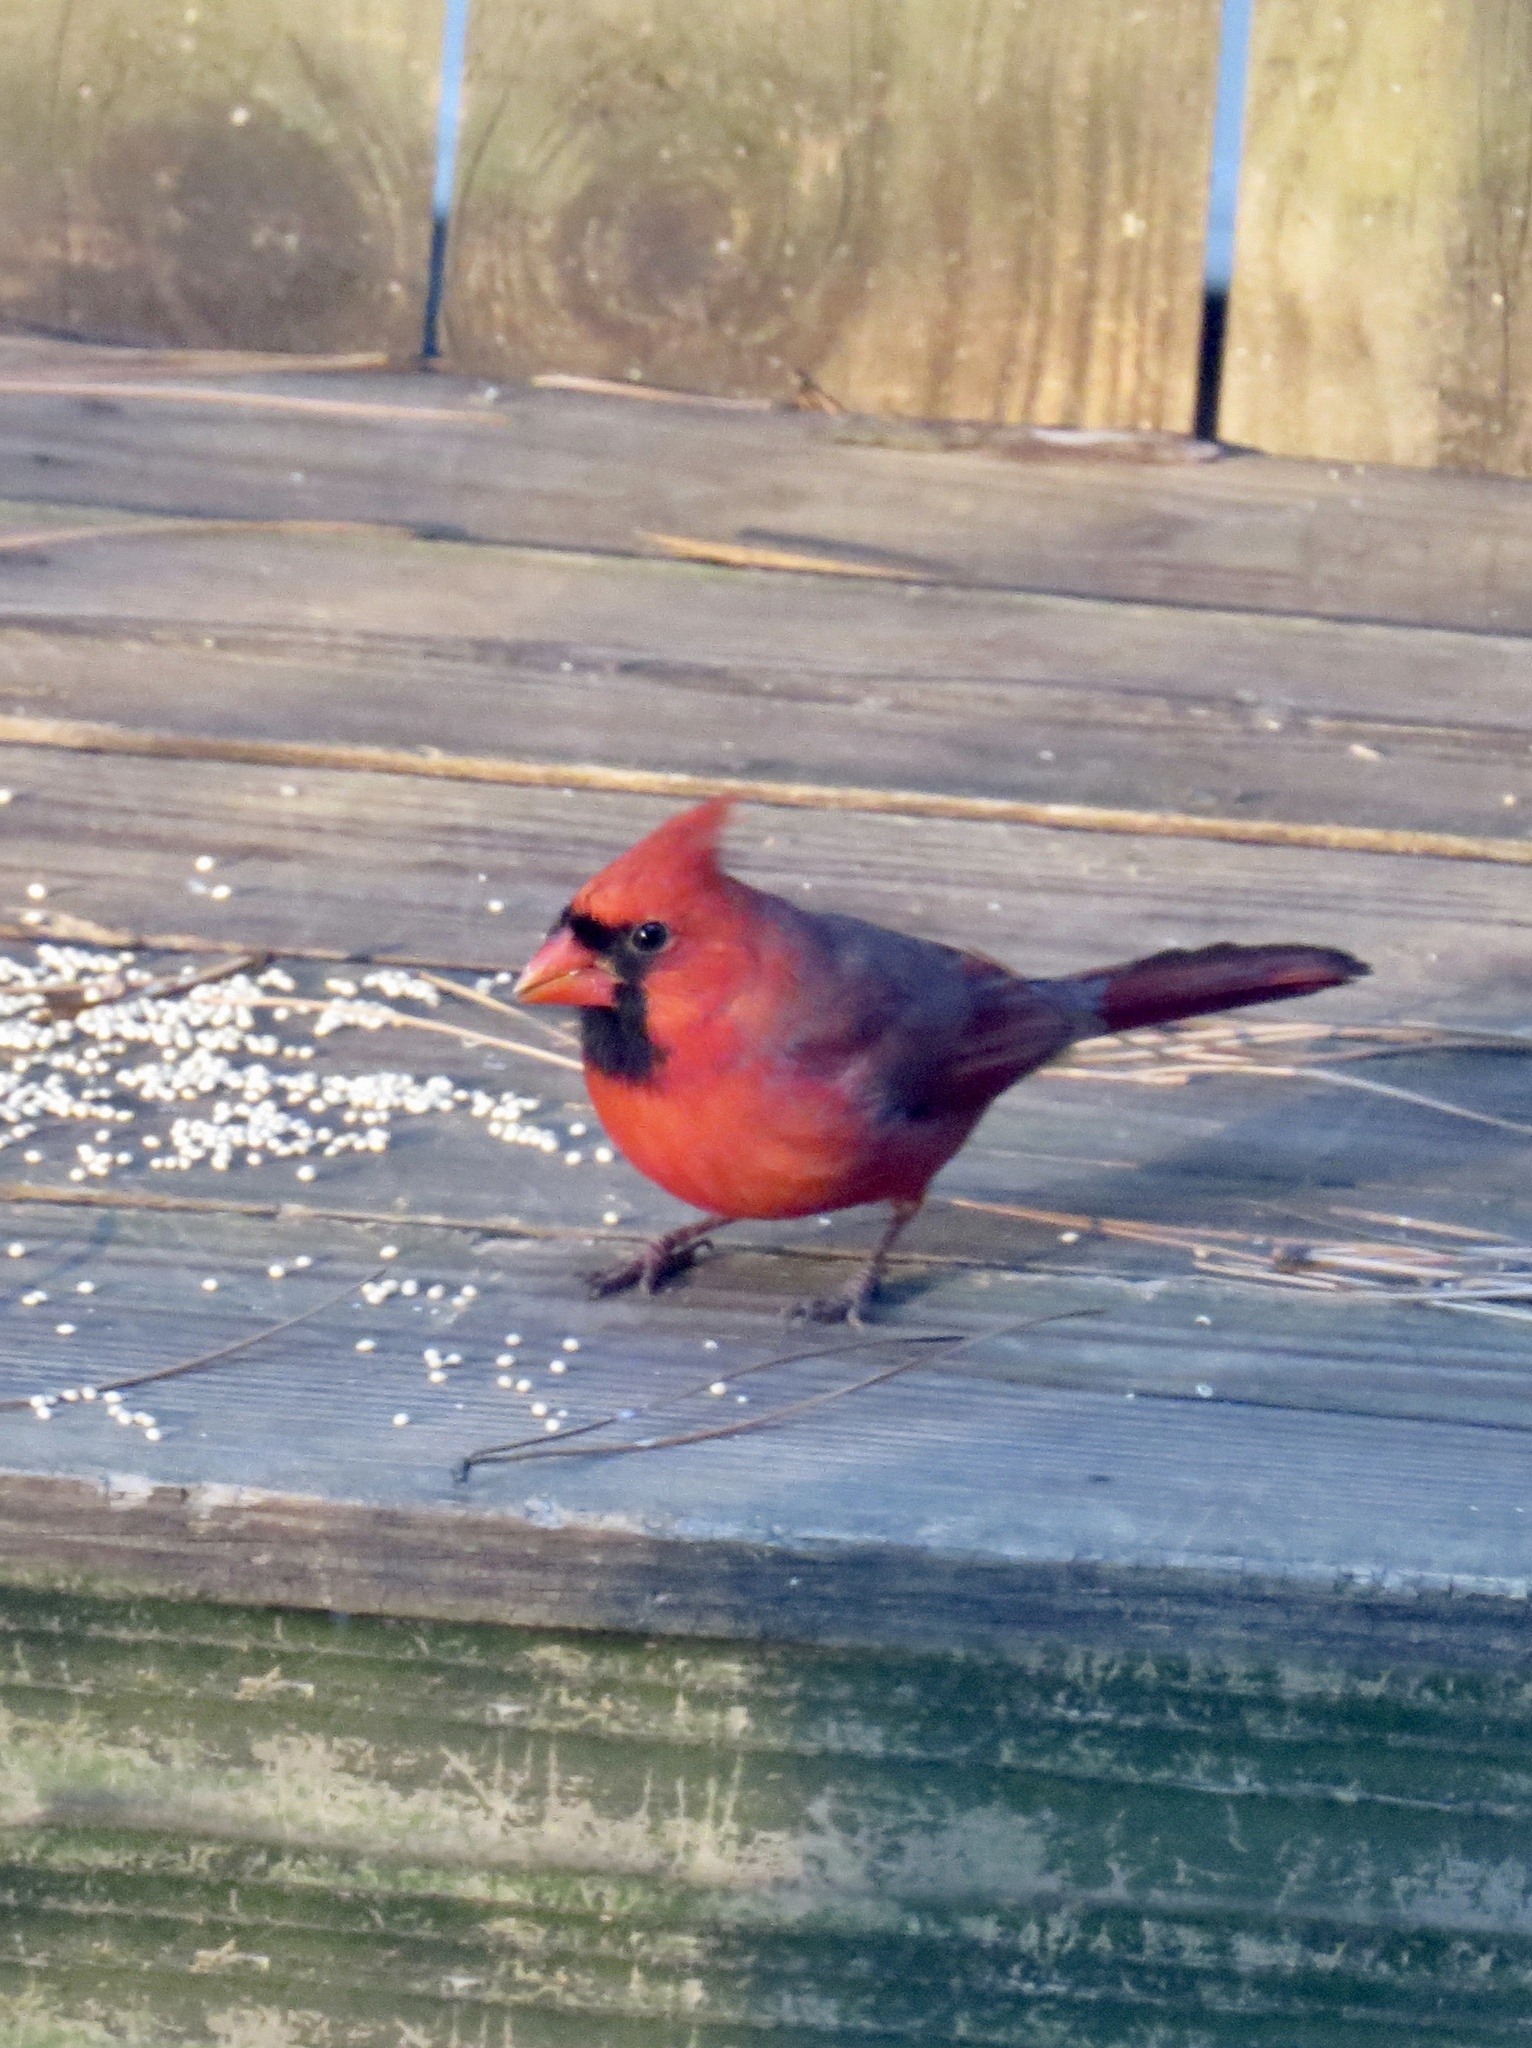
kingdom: Animalia
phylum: Chordata
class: Aves
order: Passeriformes
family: Cardinalidae
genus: Cardinalis
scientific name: Cardinalis cardinalis
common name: Northern cardinal
